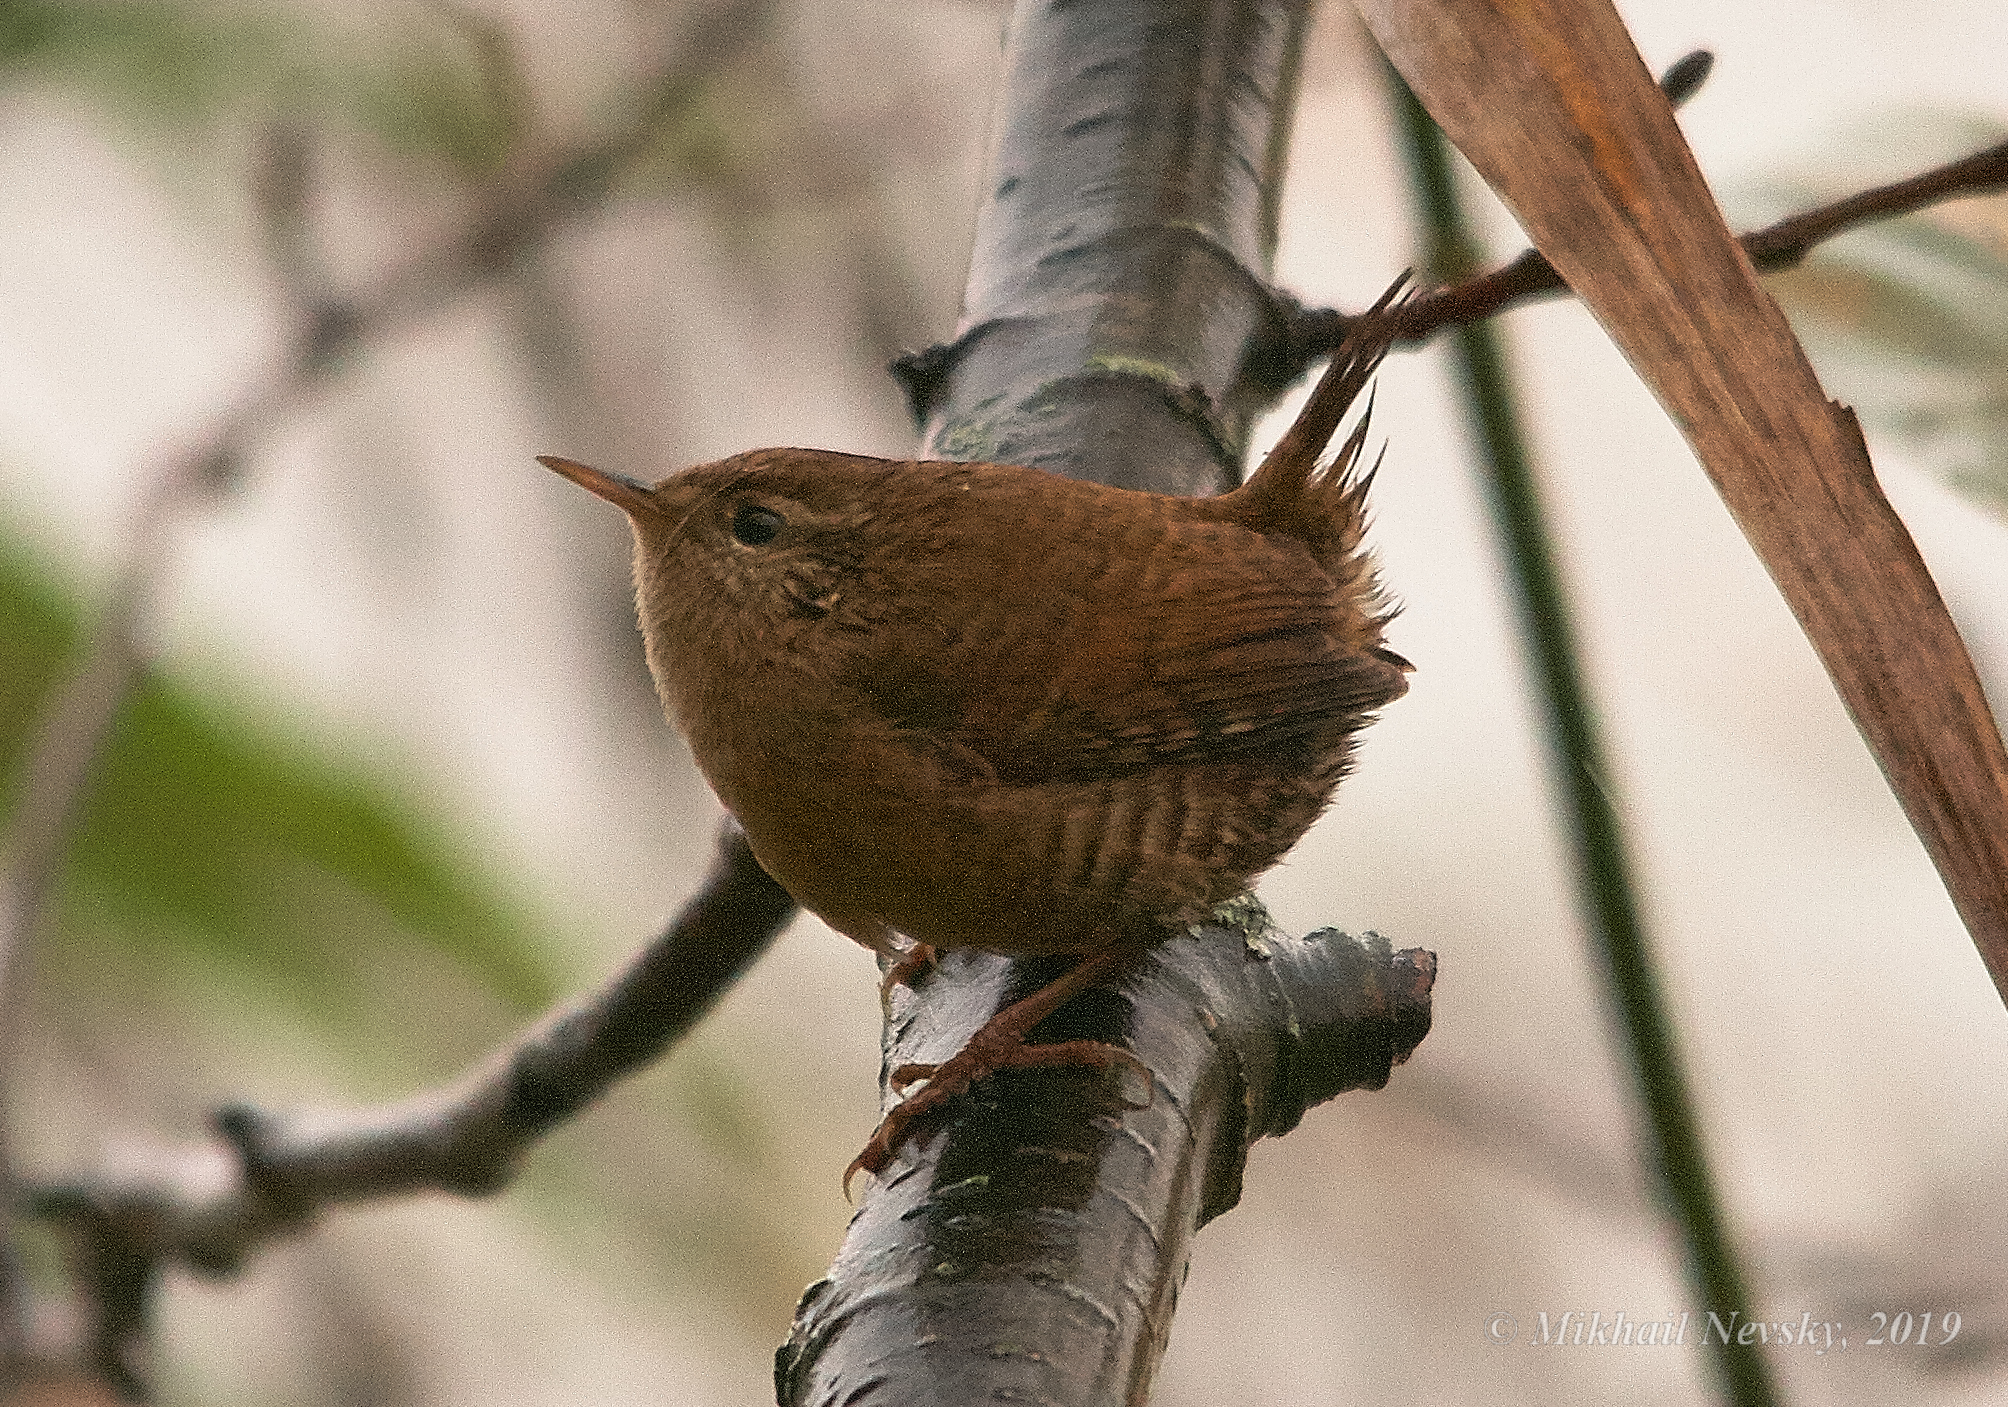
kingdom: Animalia
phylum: Chordata
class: Aves
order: Passeriformes
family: Troglodytidae
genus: Troglodytes
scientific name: Troglodytes troglodytes
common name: Eurasian wren
